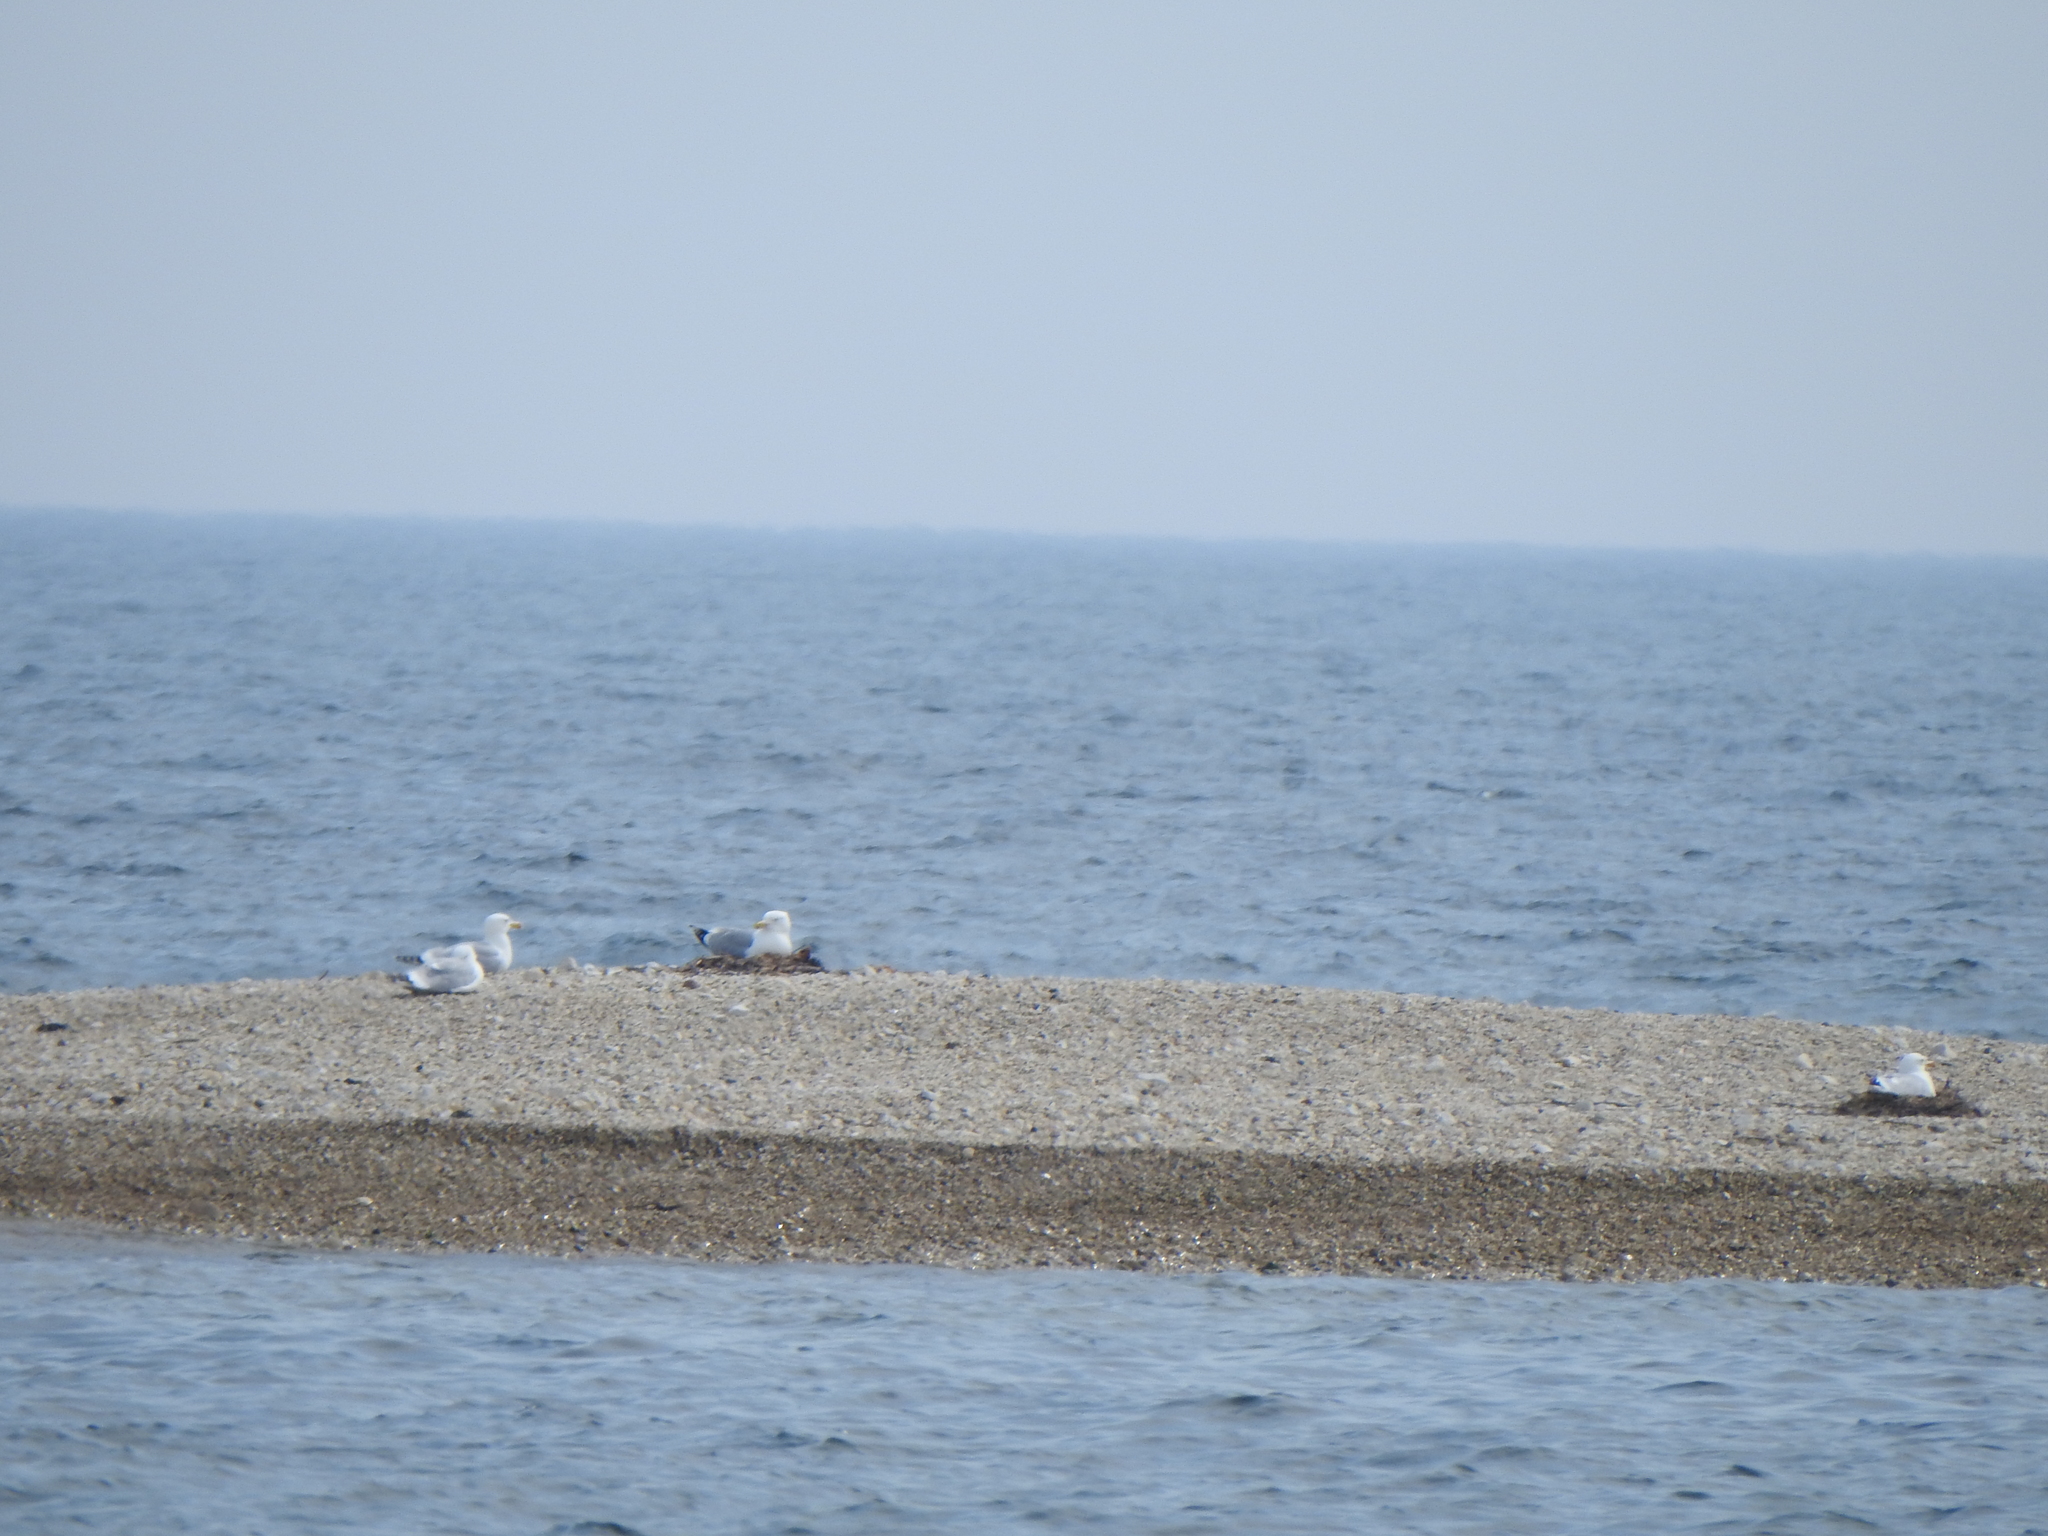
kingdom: Animalia
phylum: Chordata
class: Aves
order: Charadriiformes
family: Laridae
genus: Larus
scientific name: Larus argentatus
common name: Herring gull
